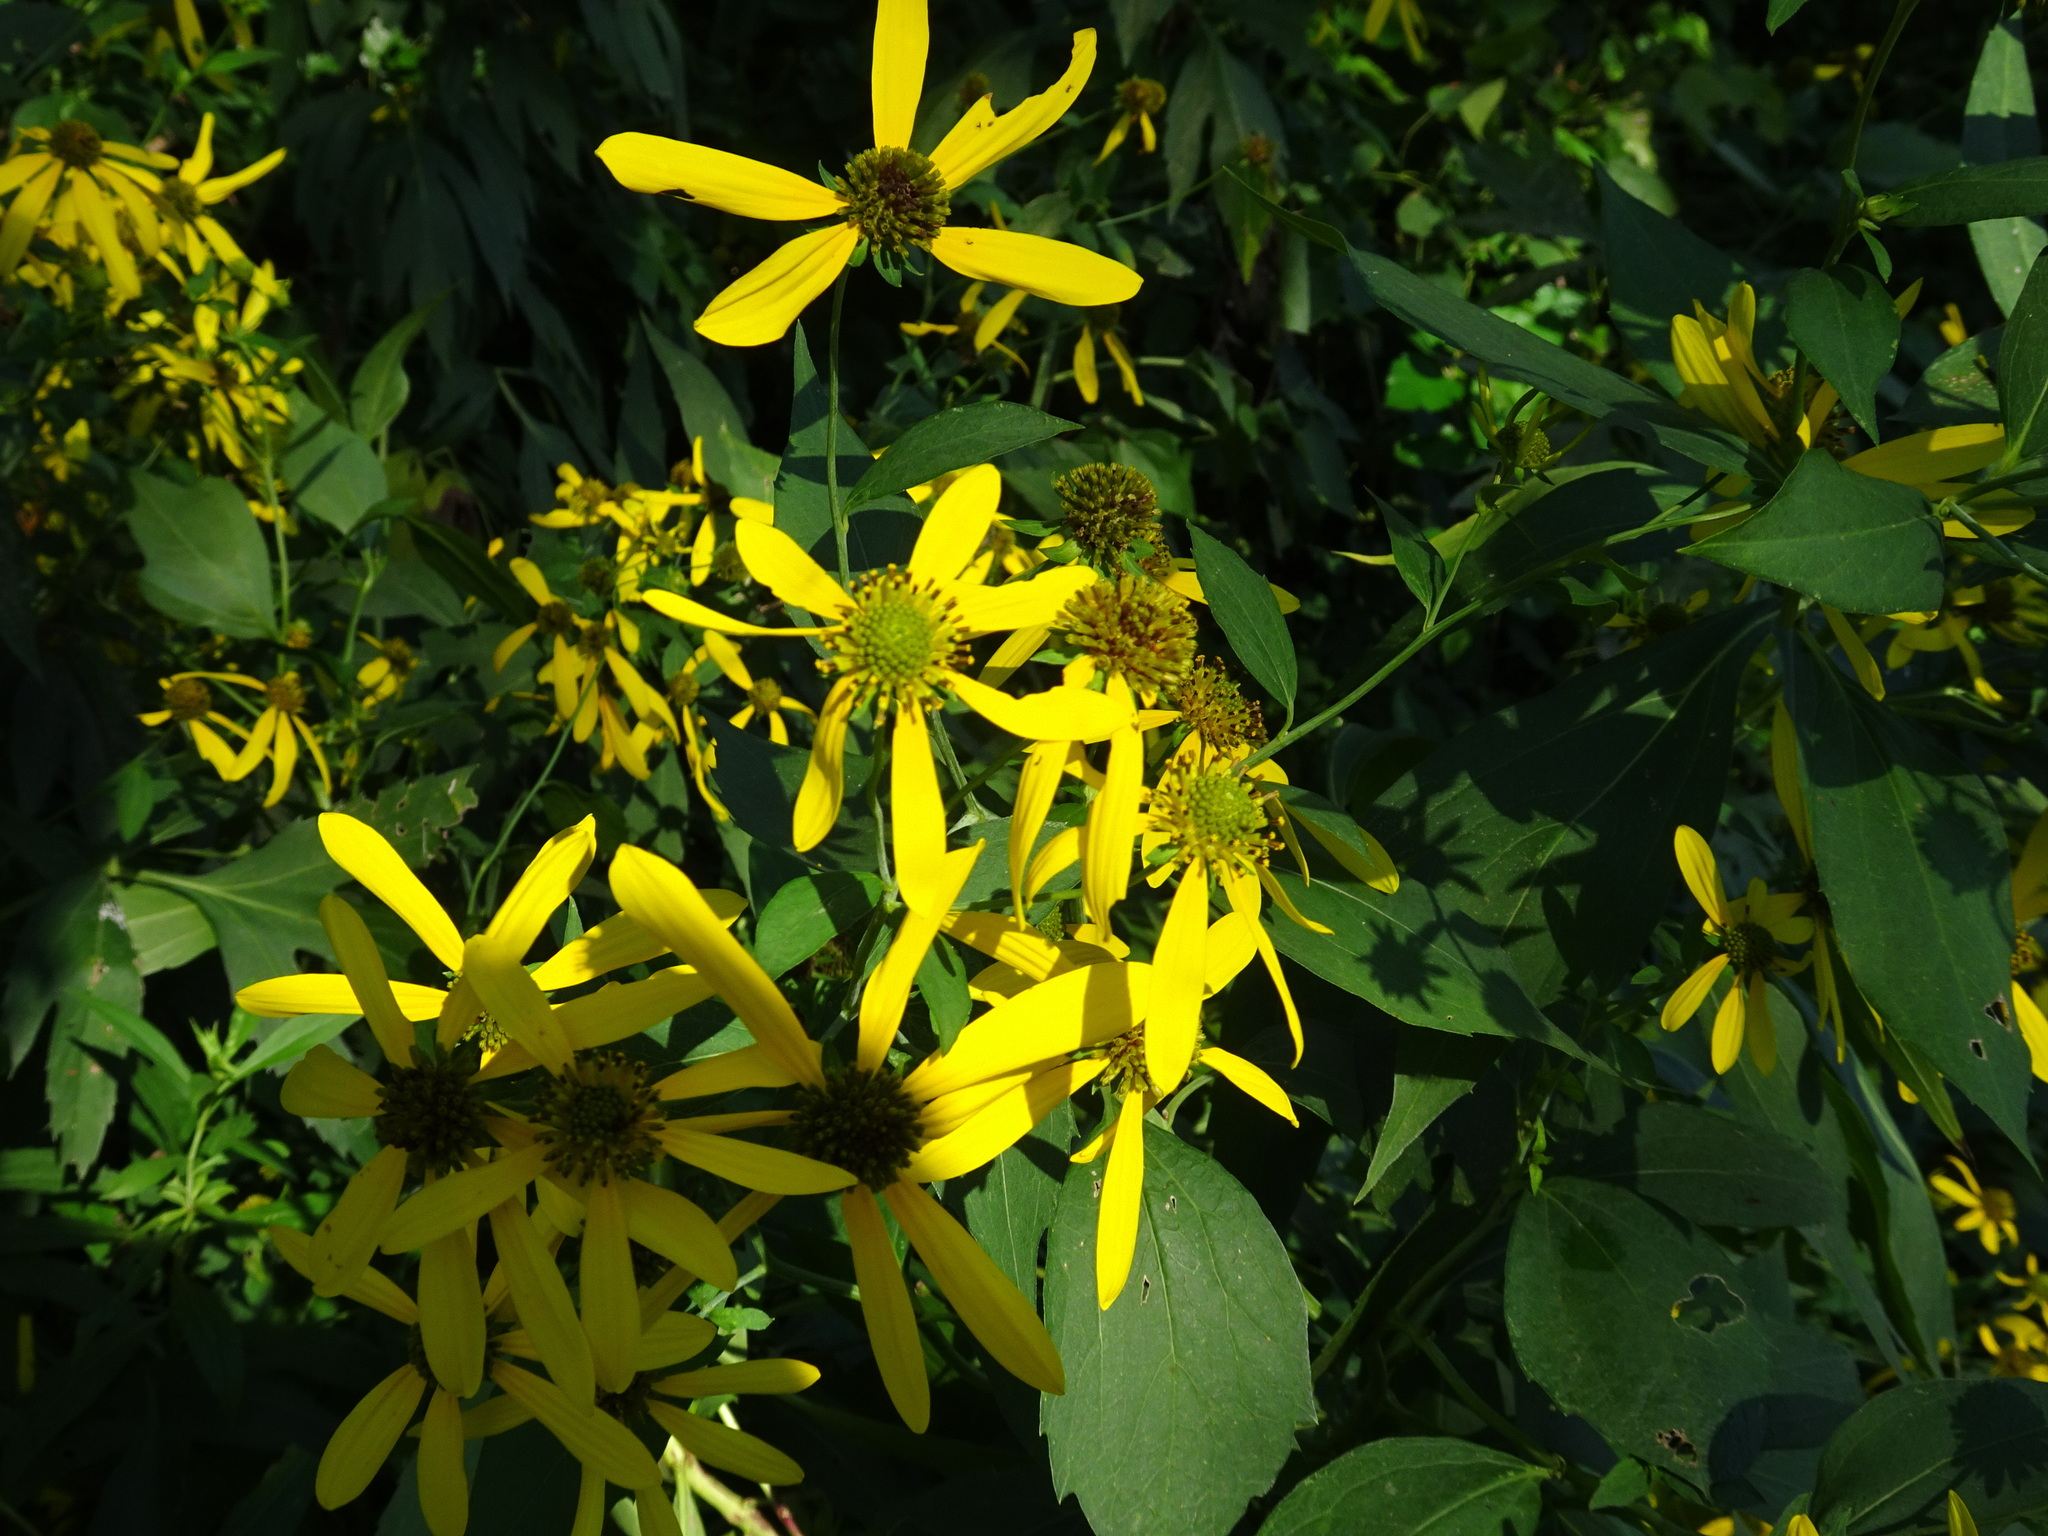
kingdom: Plantae
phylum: Tracheophyta
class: Magnoliopsida
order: Asterales
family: Asteraceae
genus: Rudbeckia
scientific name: Rudbeckia laciniata
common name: Coneflower
